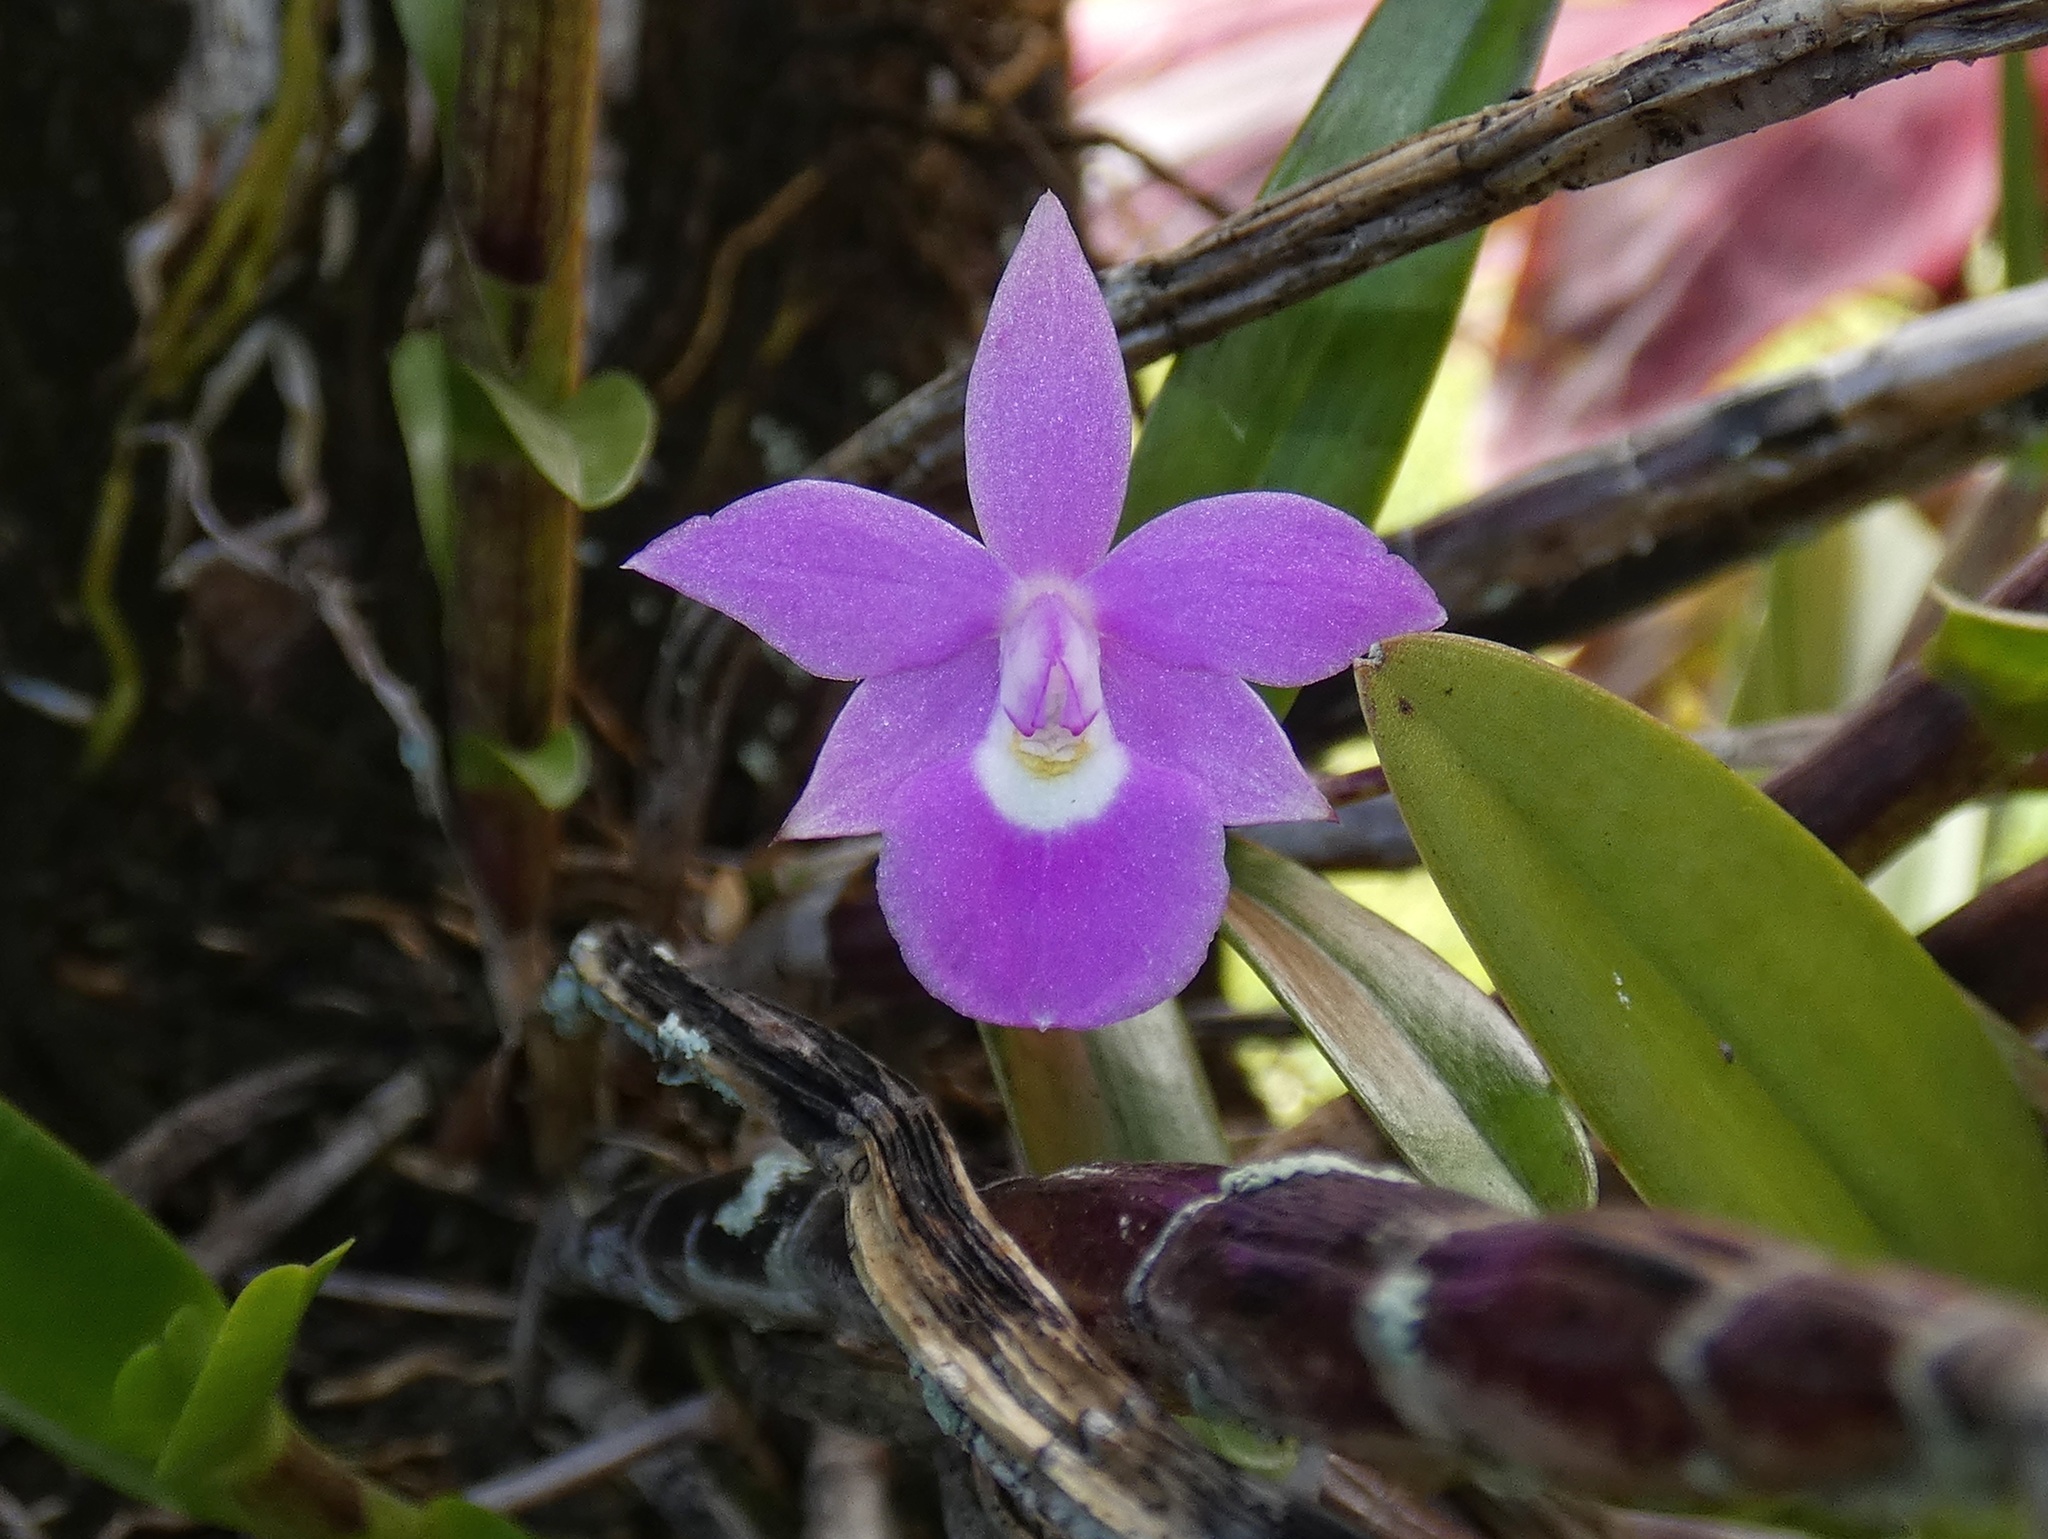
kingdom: Plantae
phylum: Tracheophyta
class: Liliopsida
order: Asparagales
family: Orchidaceae
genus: Dimerandra
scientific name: Dimerandra elegans
